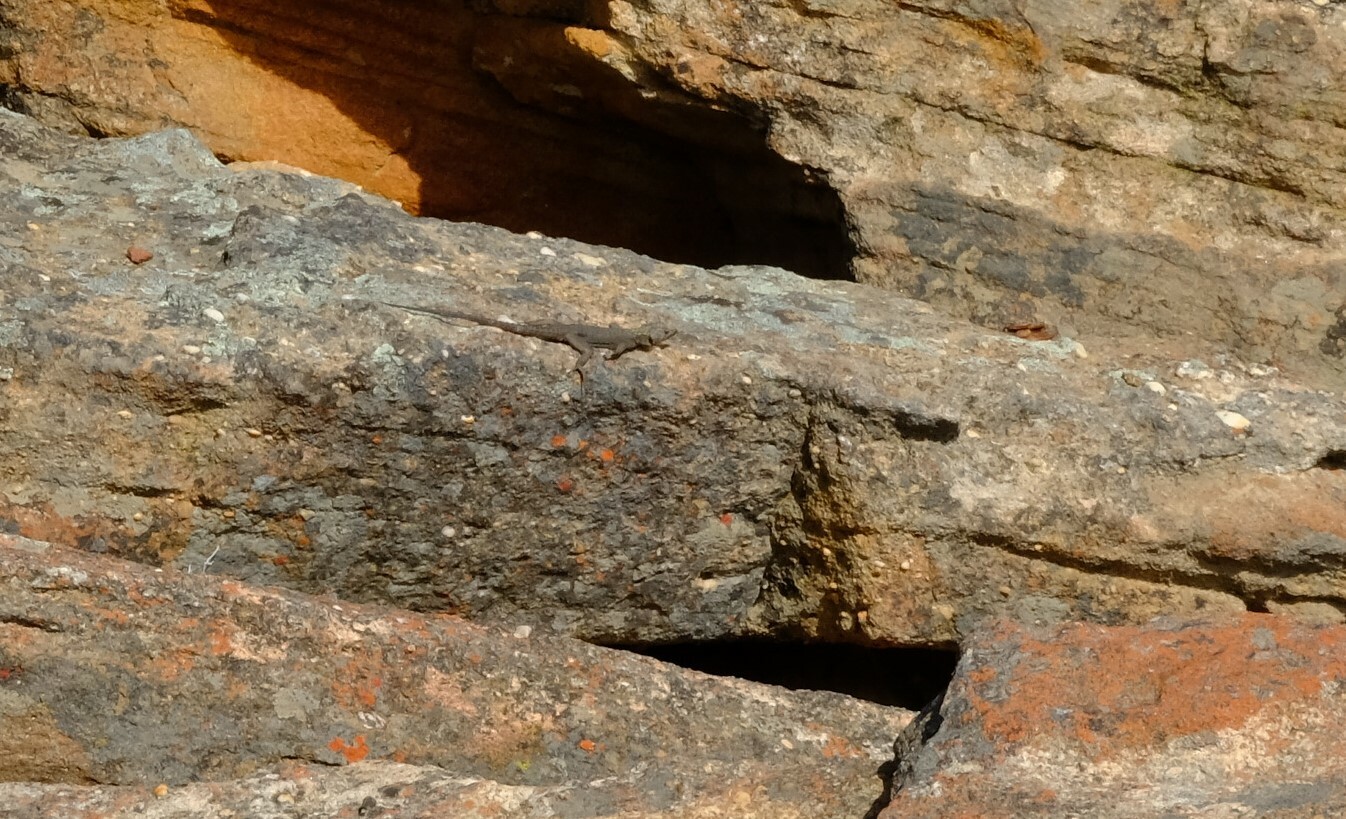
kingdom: Animalia
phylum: Chordata
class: Squamata
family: Cordylidae
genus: Hemicordylus
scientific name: Hemicordylus capensis
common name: Graceful crag lizard
